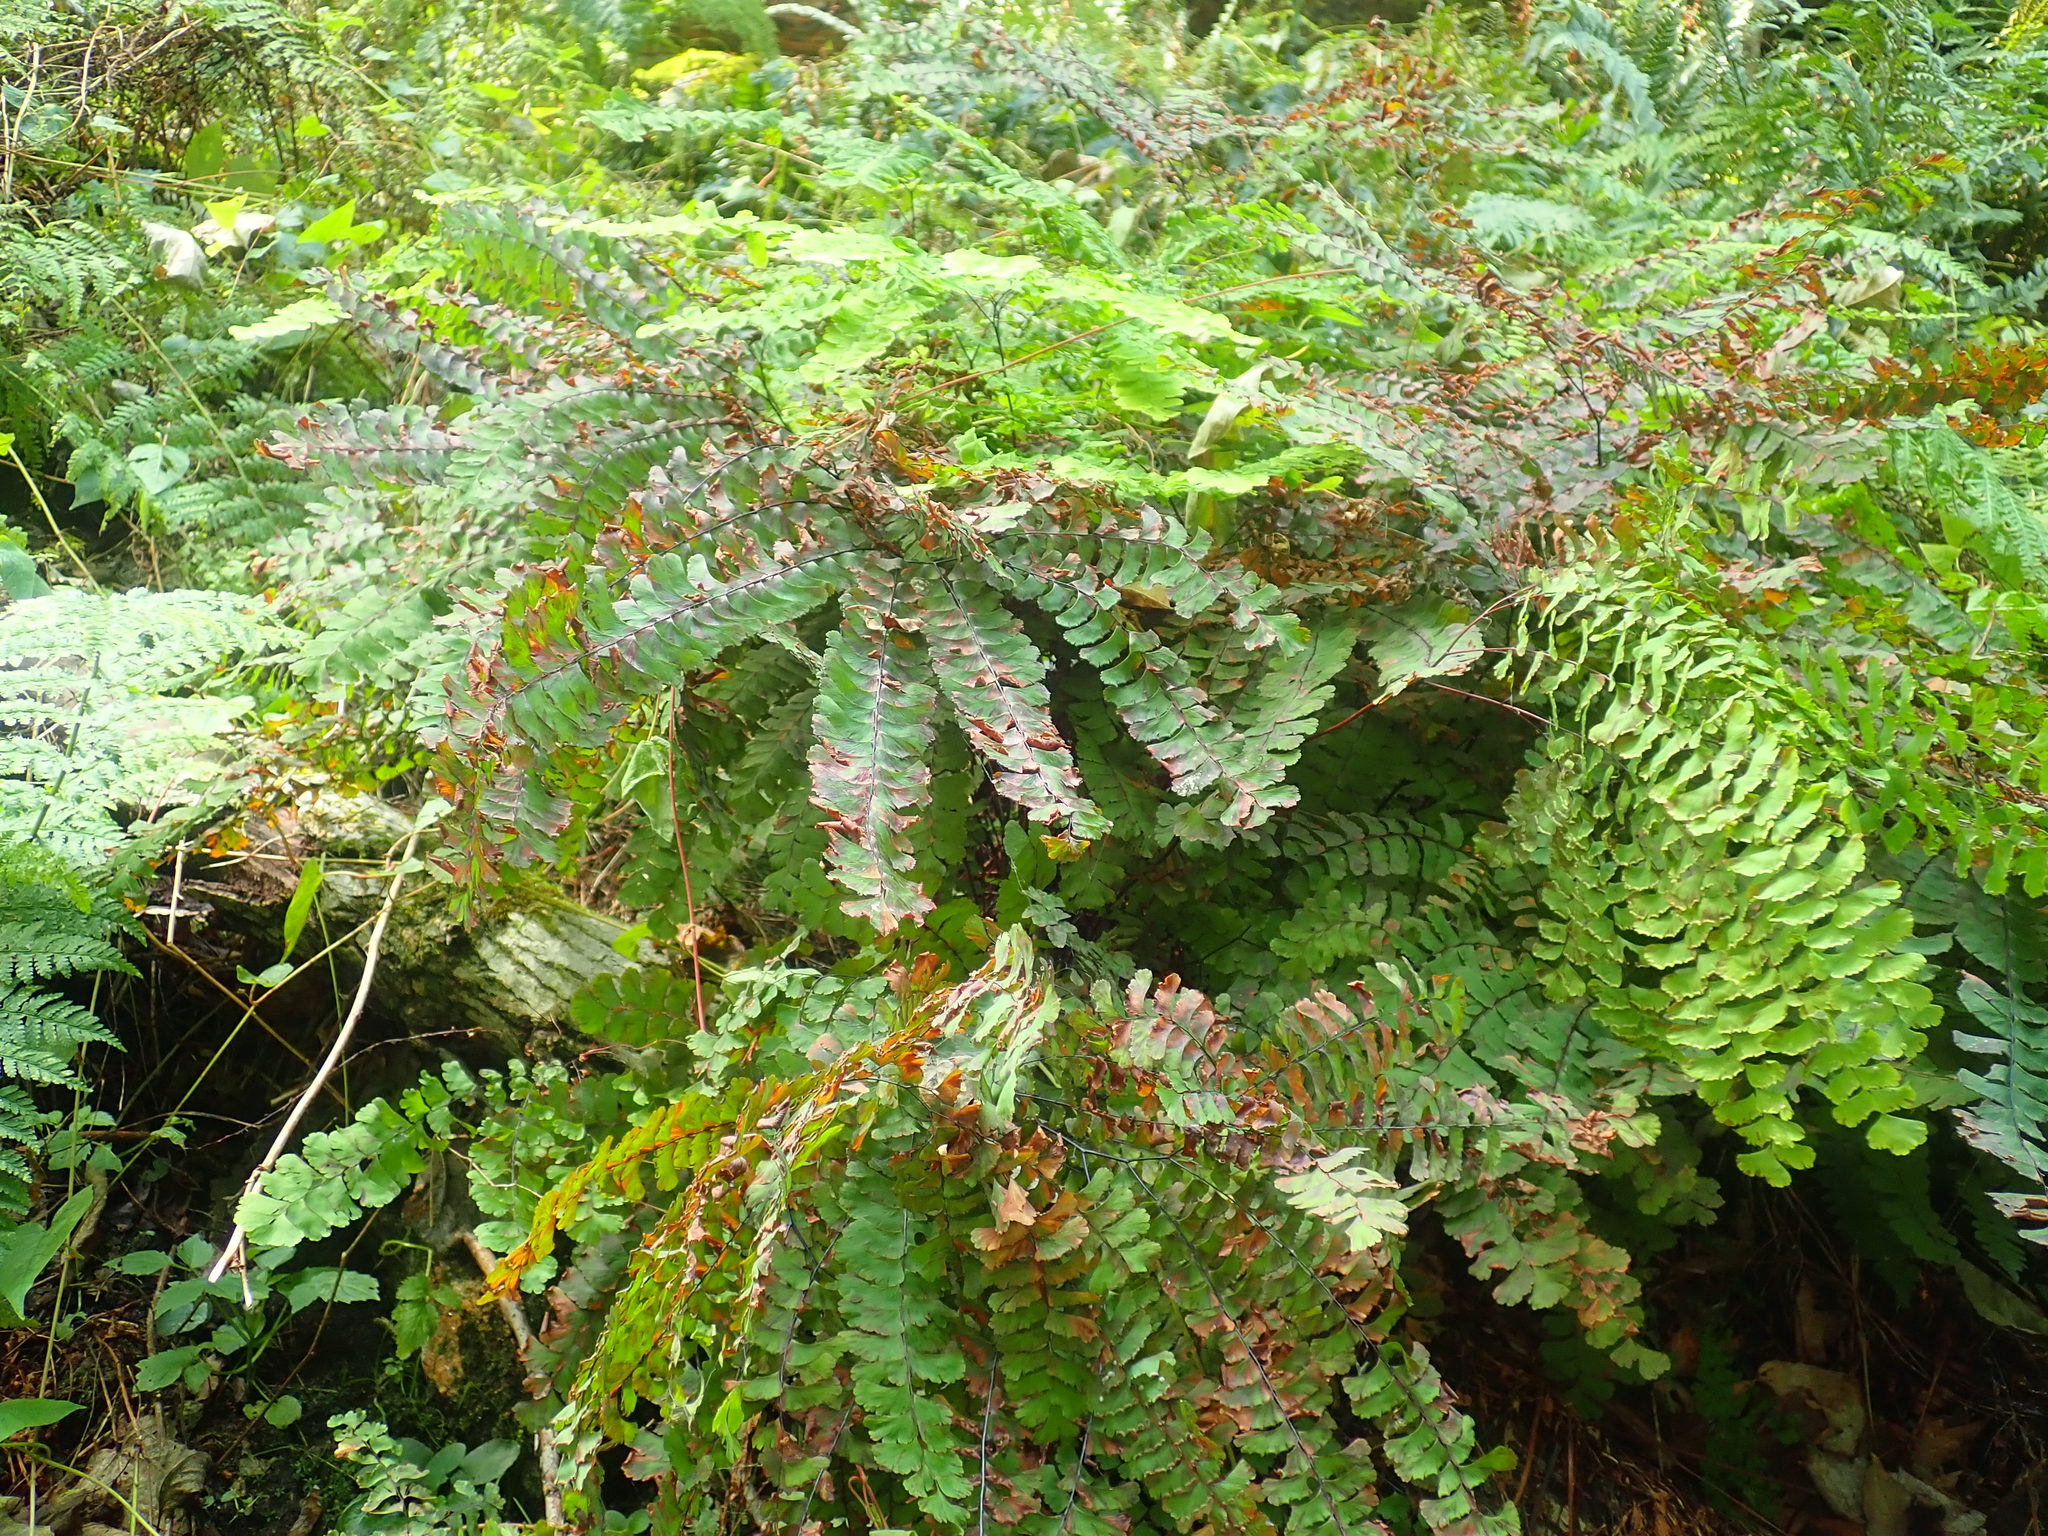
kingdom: Plantae
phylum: Tracheophyta
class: Polypodiopsida
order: Polypodiales
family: Pteridaceae
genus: Adiantum
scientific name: Adiantum pedatum
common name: Five-finger fern
